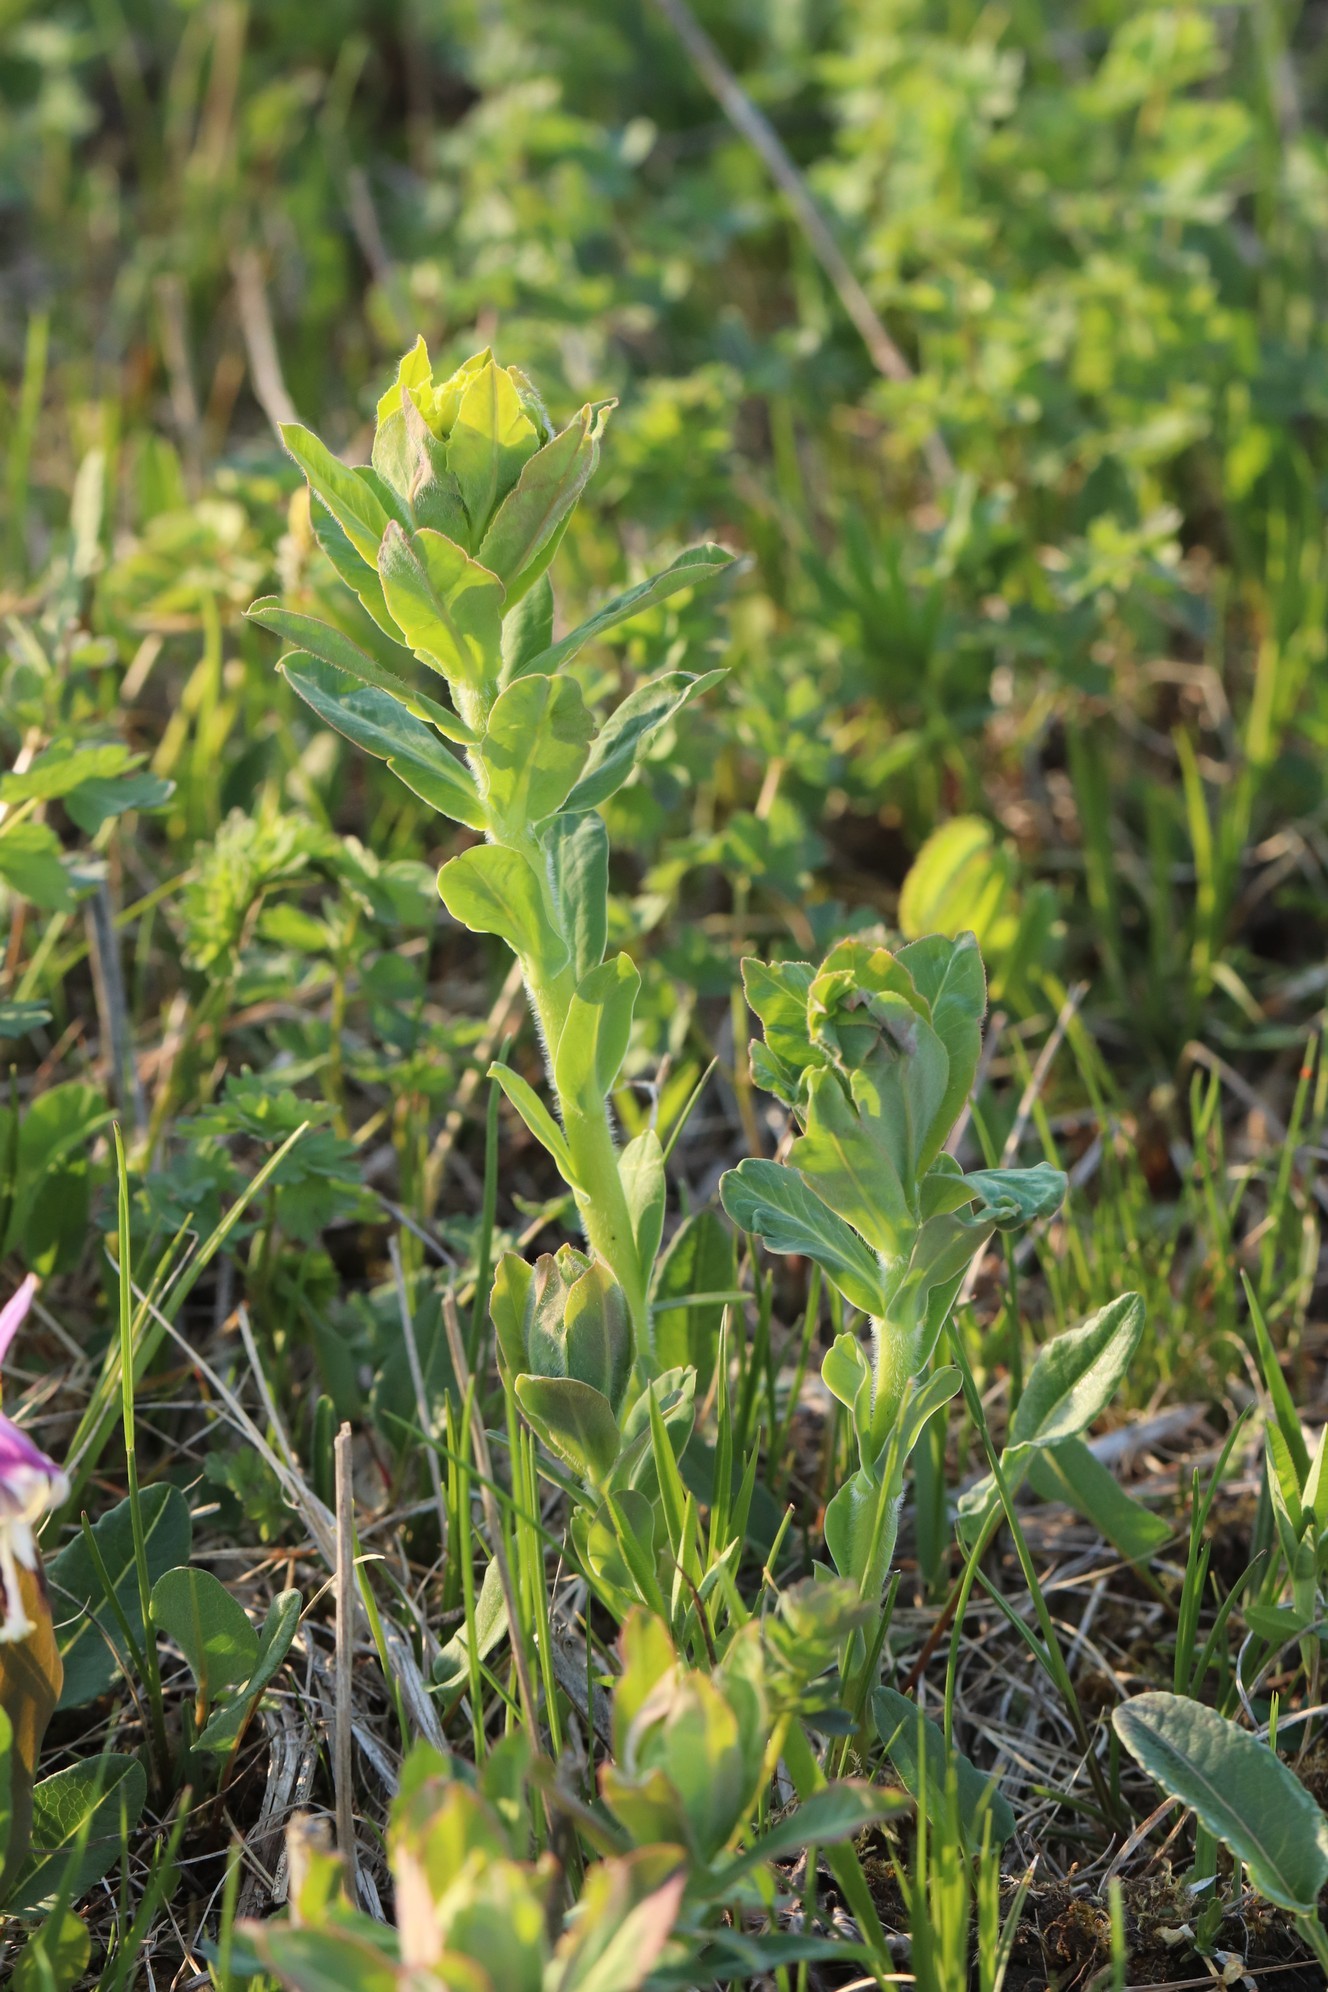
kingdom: Plantae
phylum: Tracheophyta
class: Magnoliopsida
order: Malpighiales
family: Euphorbiaceae
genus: Euphorbia
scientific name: Euphorbia pilosa
